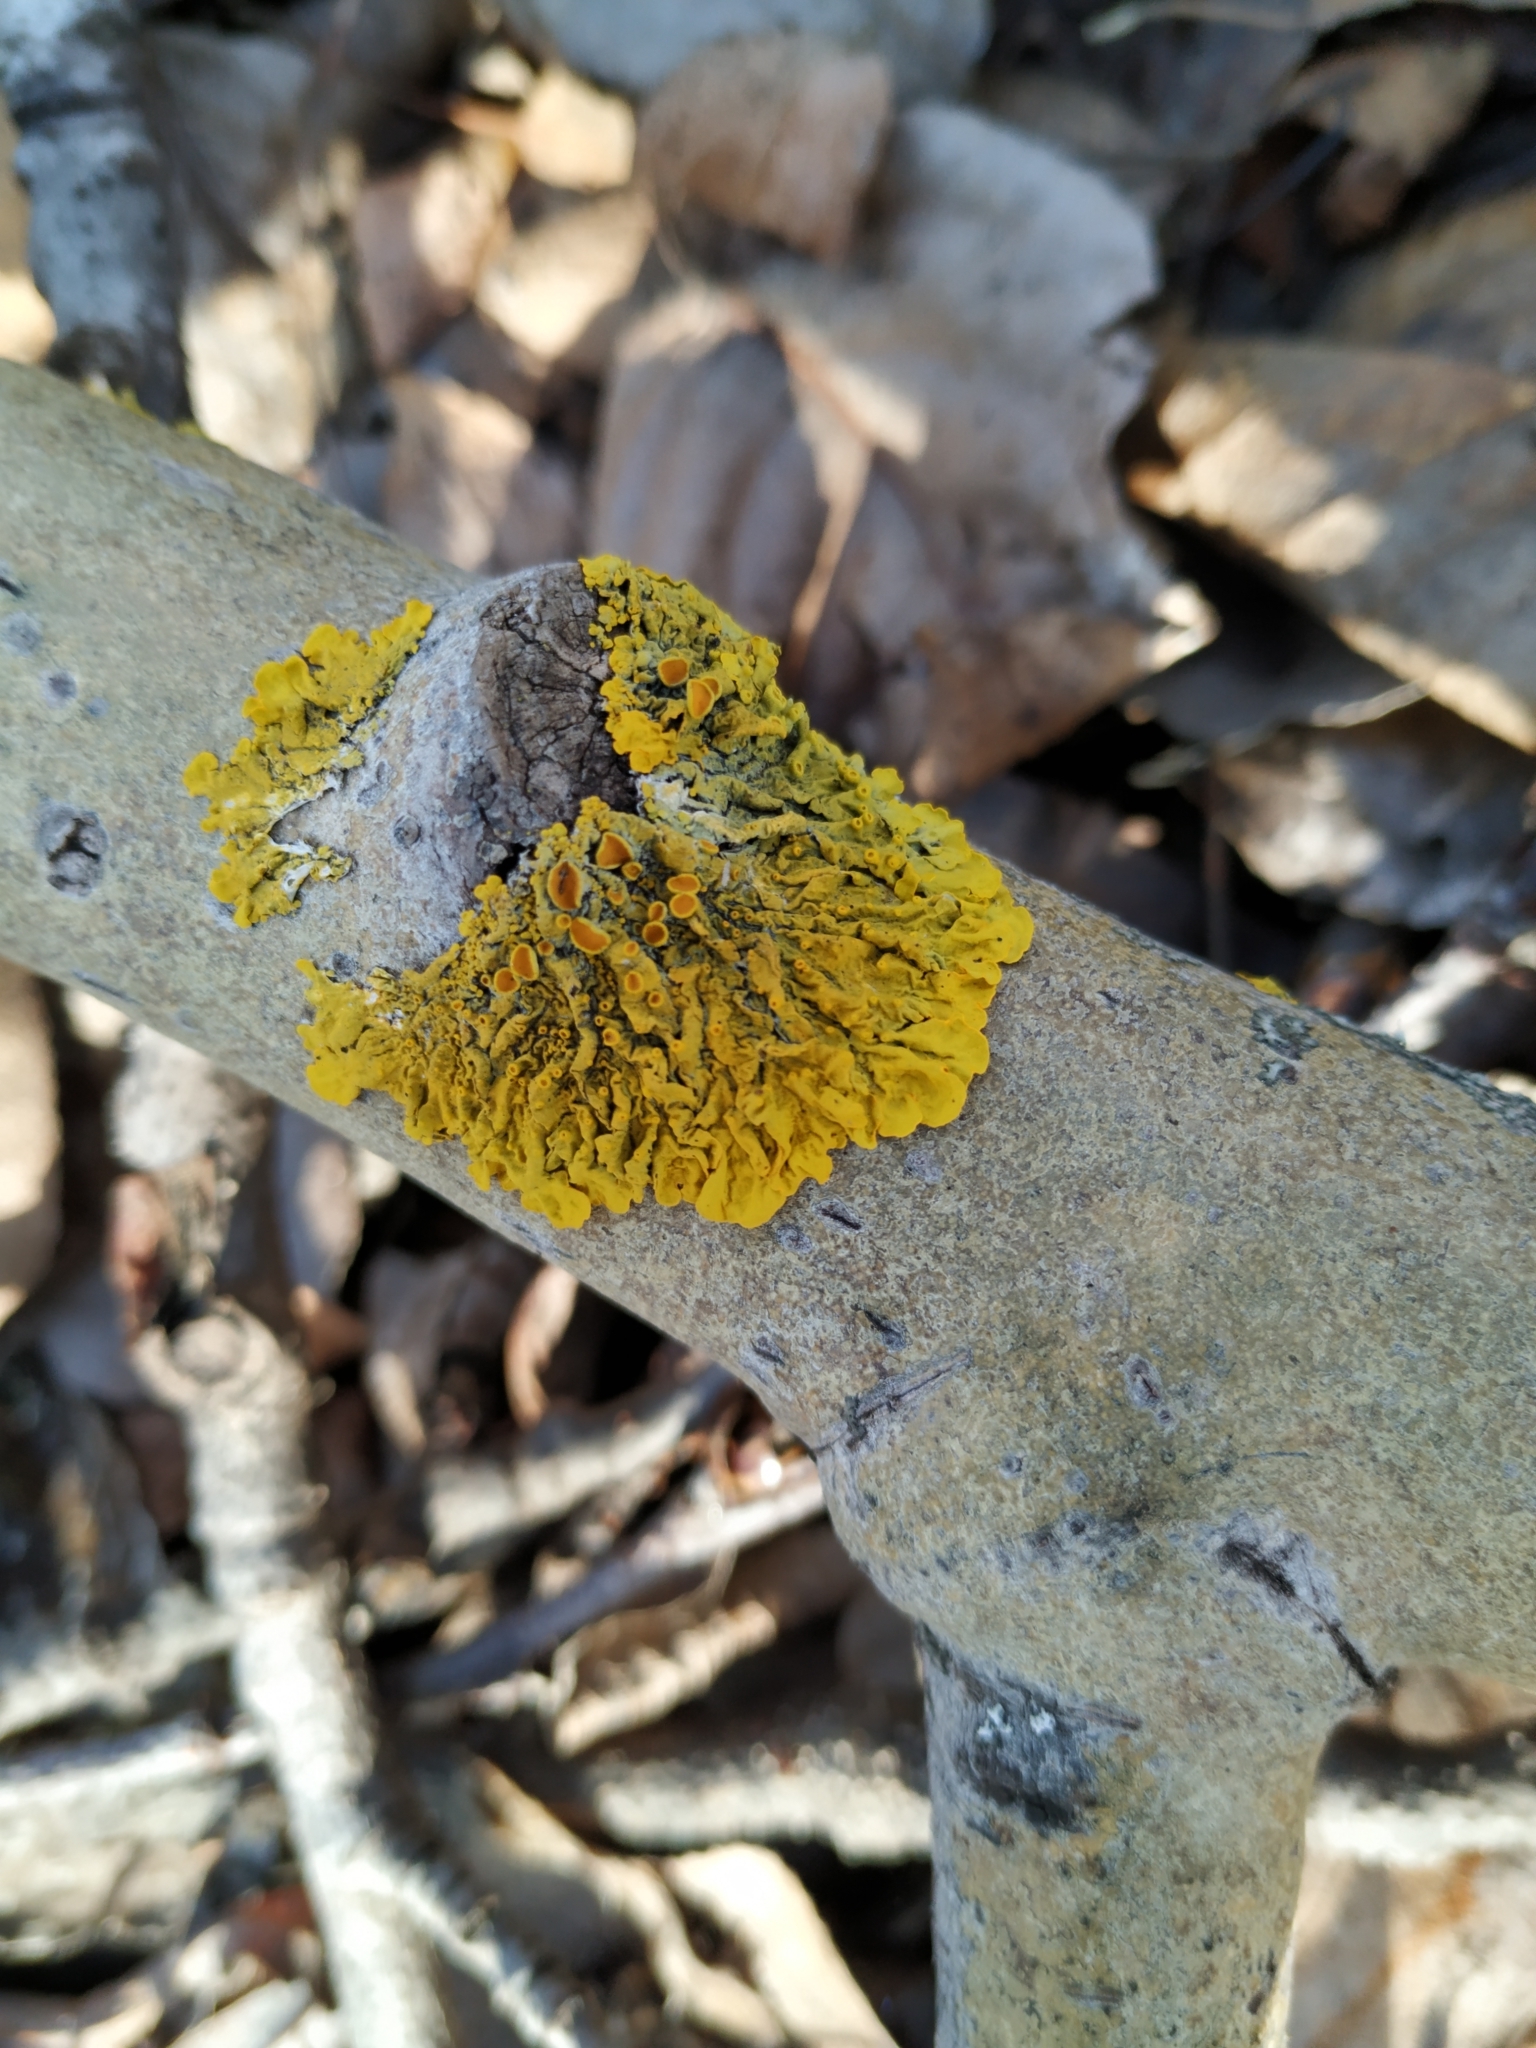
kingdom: Fungi
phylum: Ascomycota
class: Lecanoromycetes
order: Teloschistales
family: Teloschistaceae
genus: Xanthoria
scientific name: Xanthoria parietina
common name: Common orange lichen
